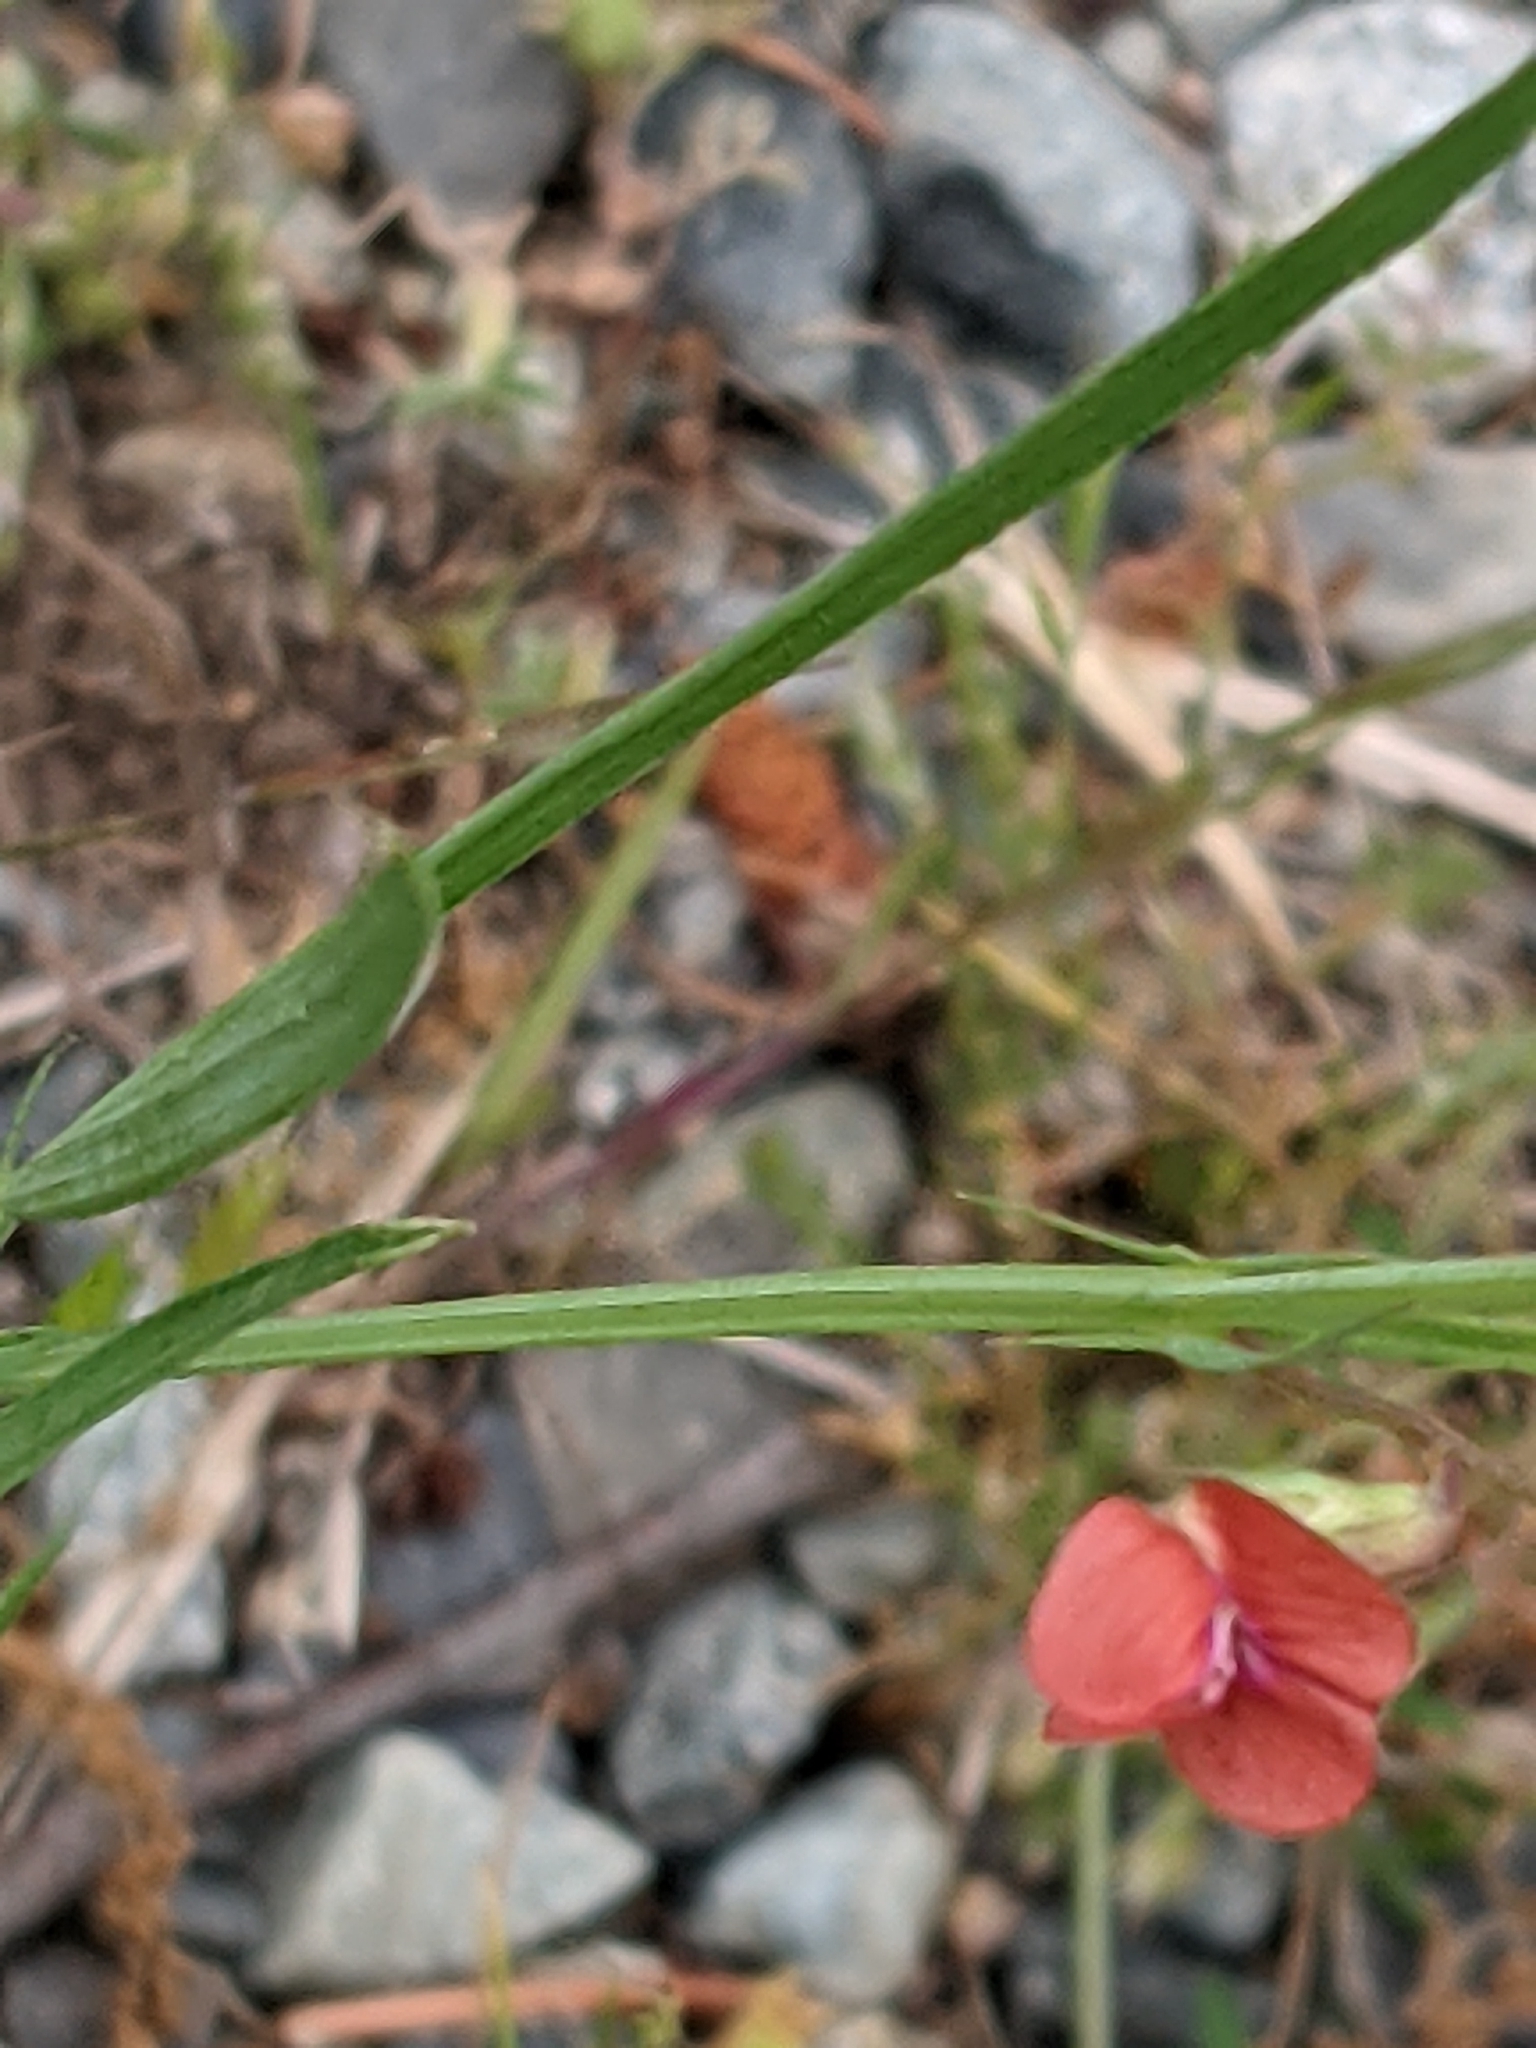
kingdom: Plantae
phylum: Tracheophyta
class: Magnoliopsida
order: Fabales
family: Fabaceae
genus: Lathyrus
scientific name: Lathyrus sphaericus
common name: Grass pea
